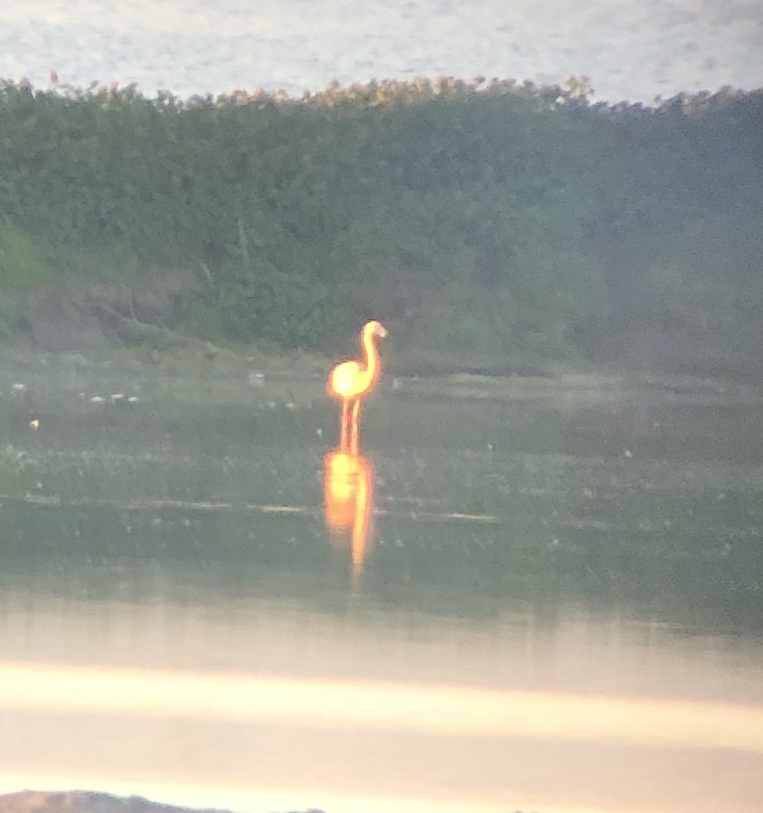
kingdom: Animalia
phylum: Chordata
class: Aves
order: Phoenicopteriformes
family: Phoenicopteridae
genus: Phoenicopterus
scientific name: Phoenicopterus chilensis
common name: Chilean flamingo
